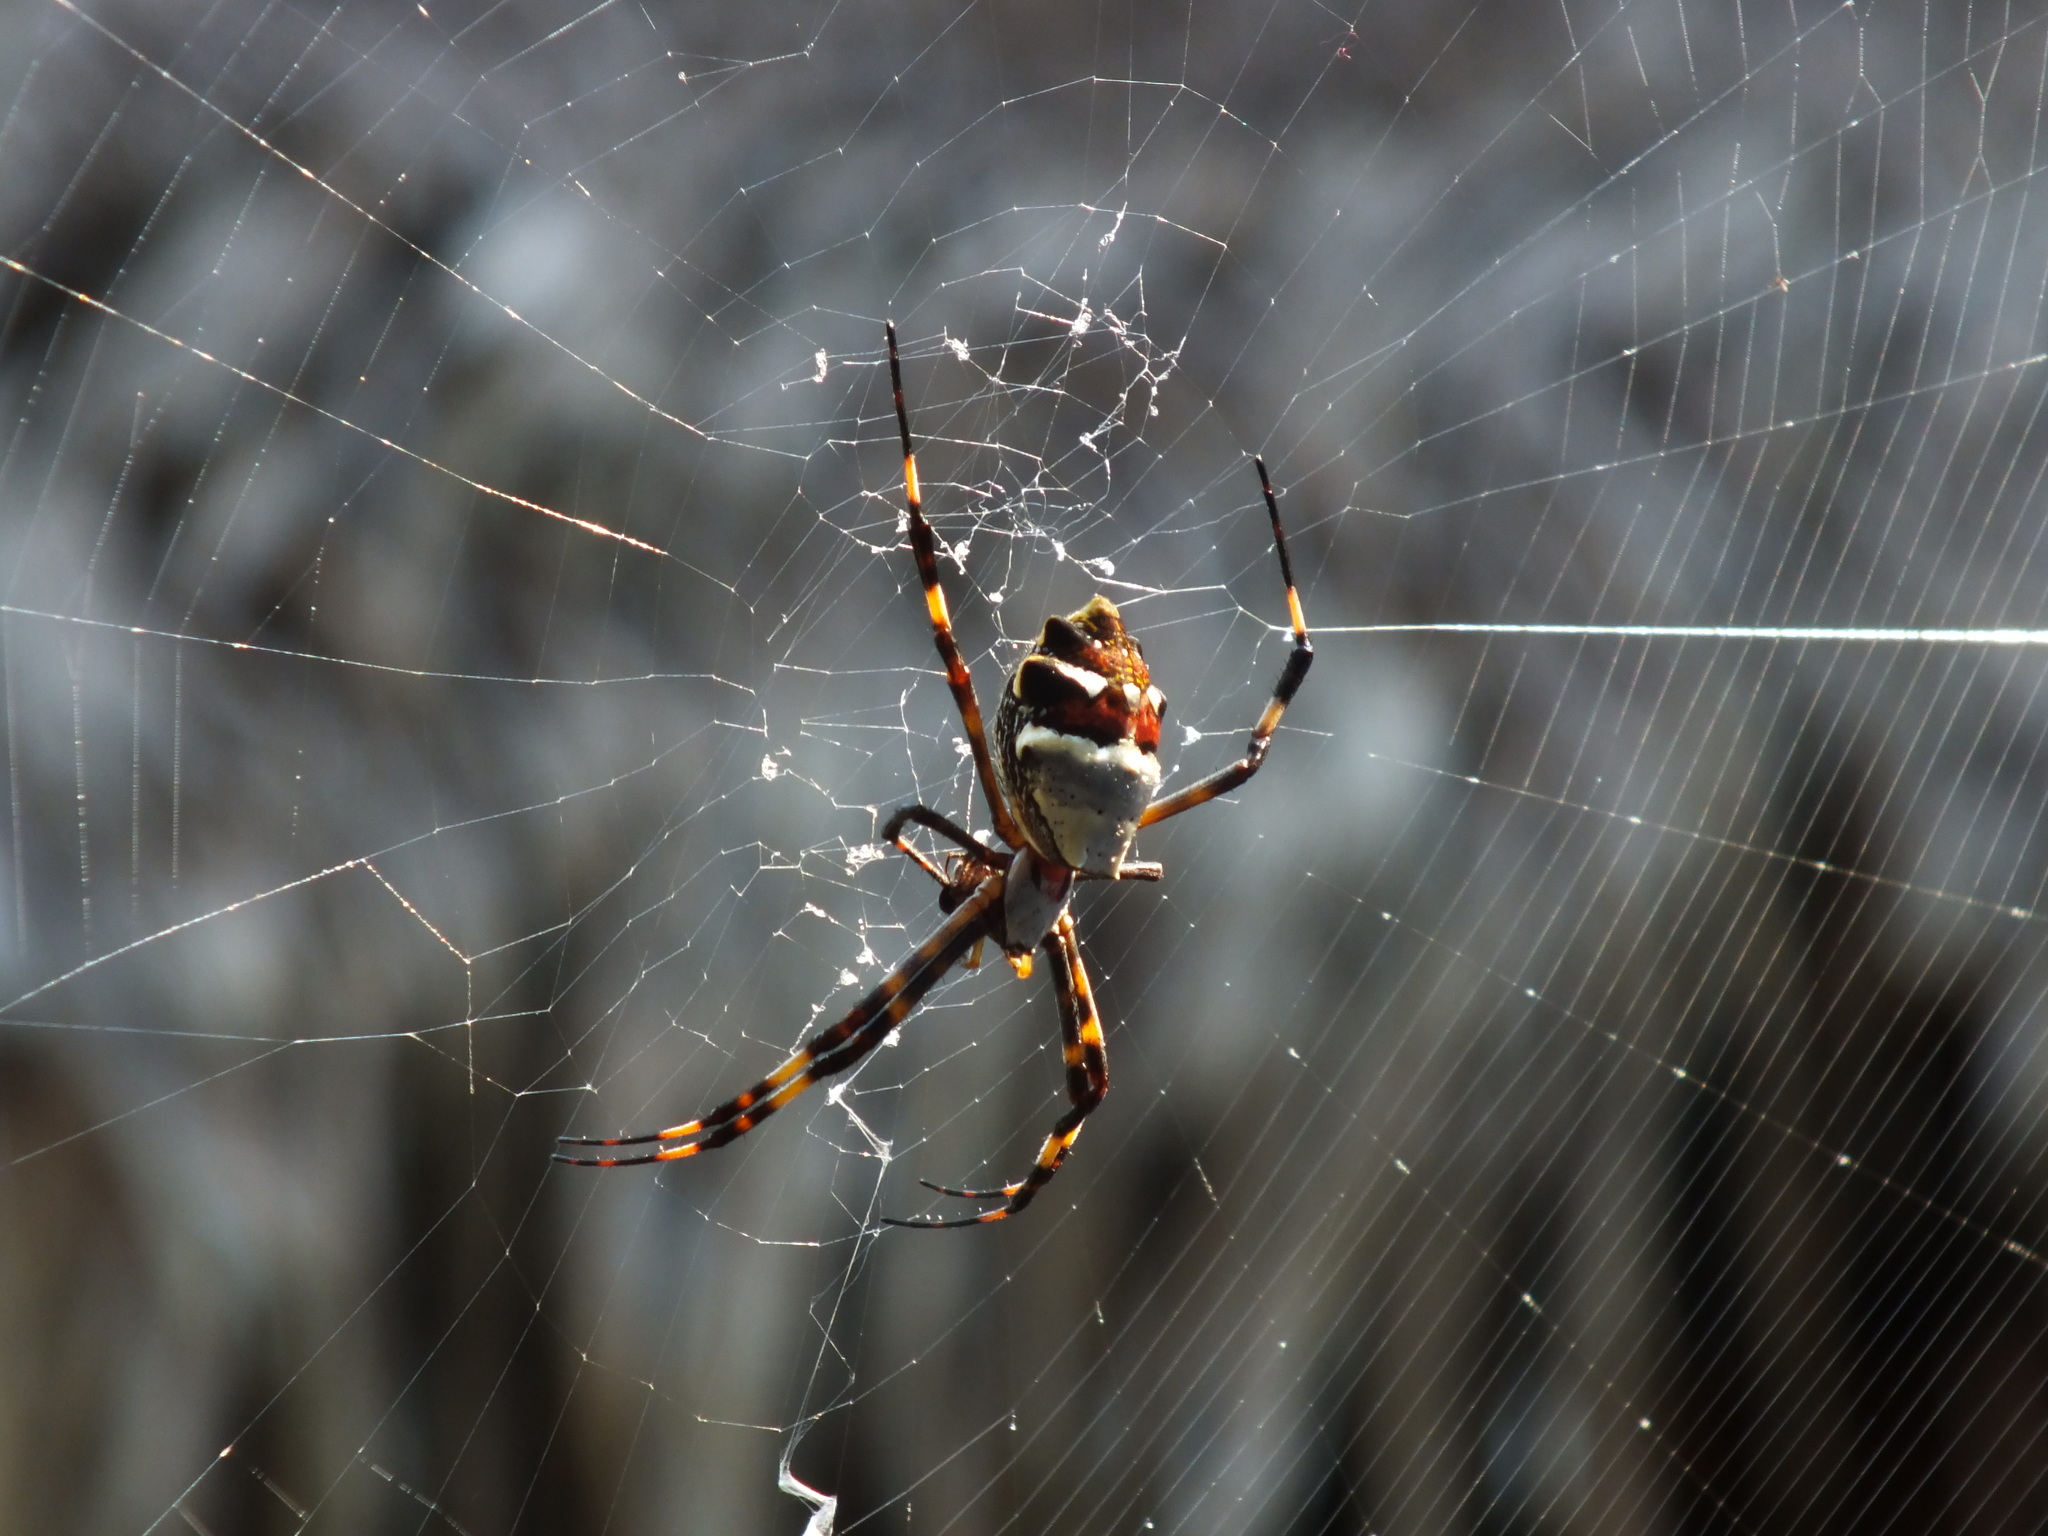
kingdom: Animalia
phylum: Arthropoda
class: Arachnida
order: Araneae
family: Araneidae
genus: Argiope
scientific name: Argiope argentata
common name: Orb weavers
